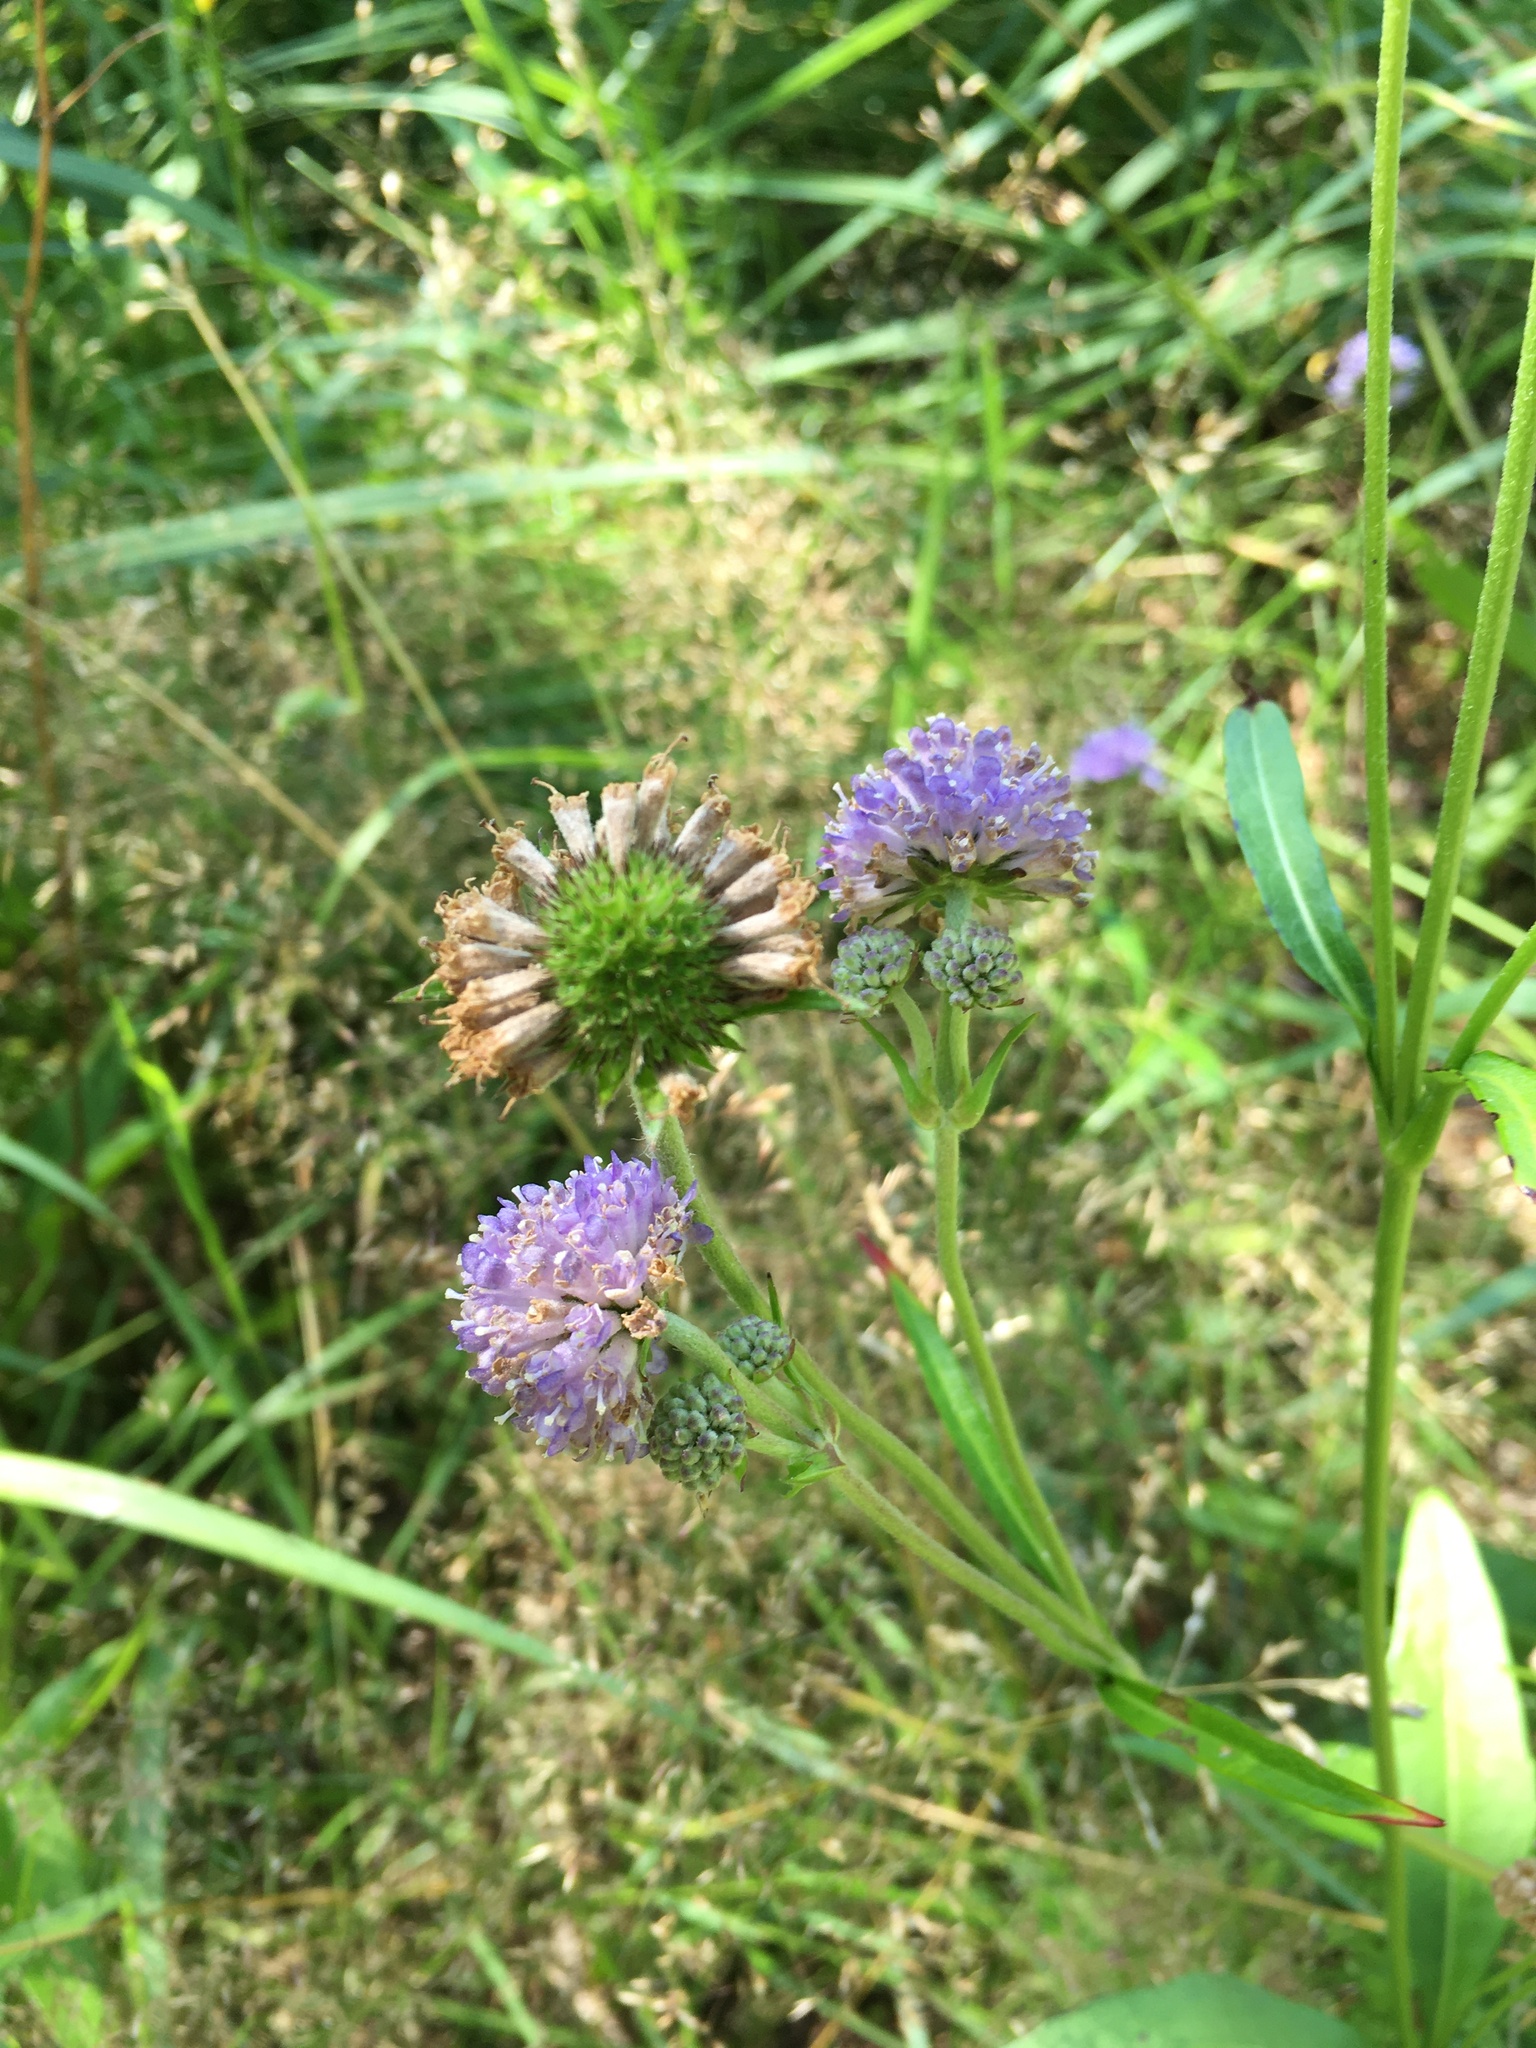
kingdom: Plantae
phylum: Tracheophyta
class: Magnoliopsida
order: Dipsacales
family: Caprifoliaceae
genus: Succisa
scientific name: Succisa pratensis
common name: Devil's-bit
